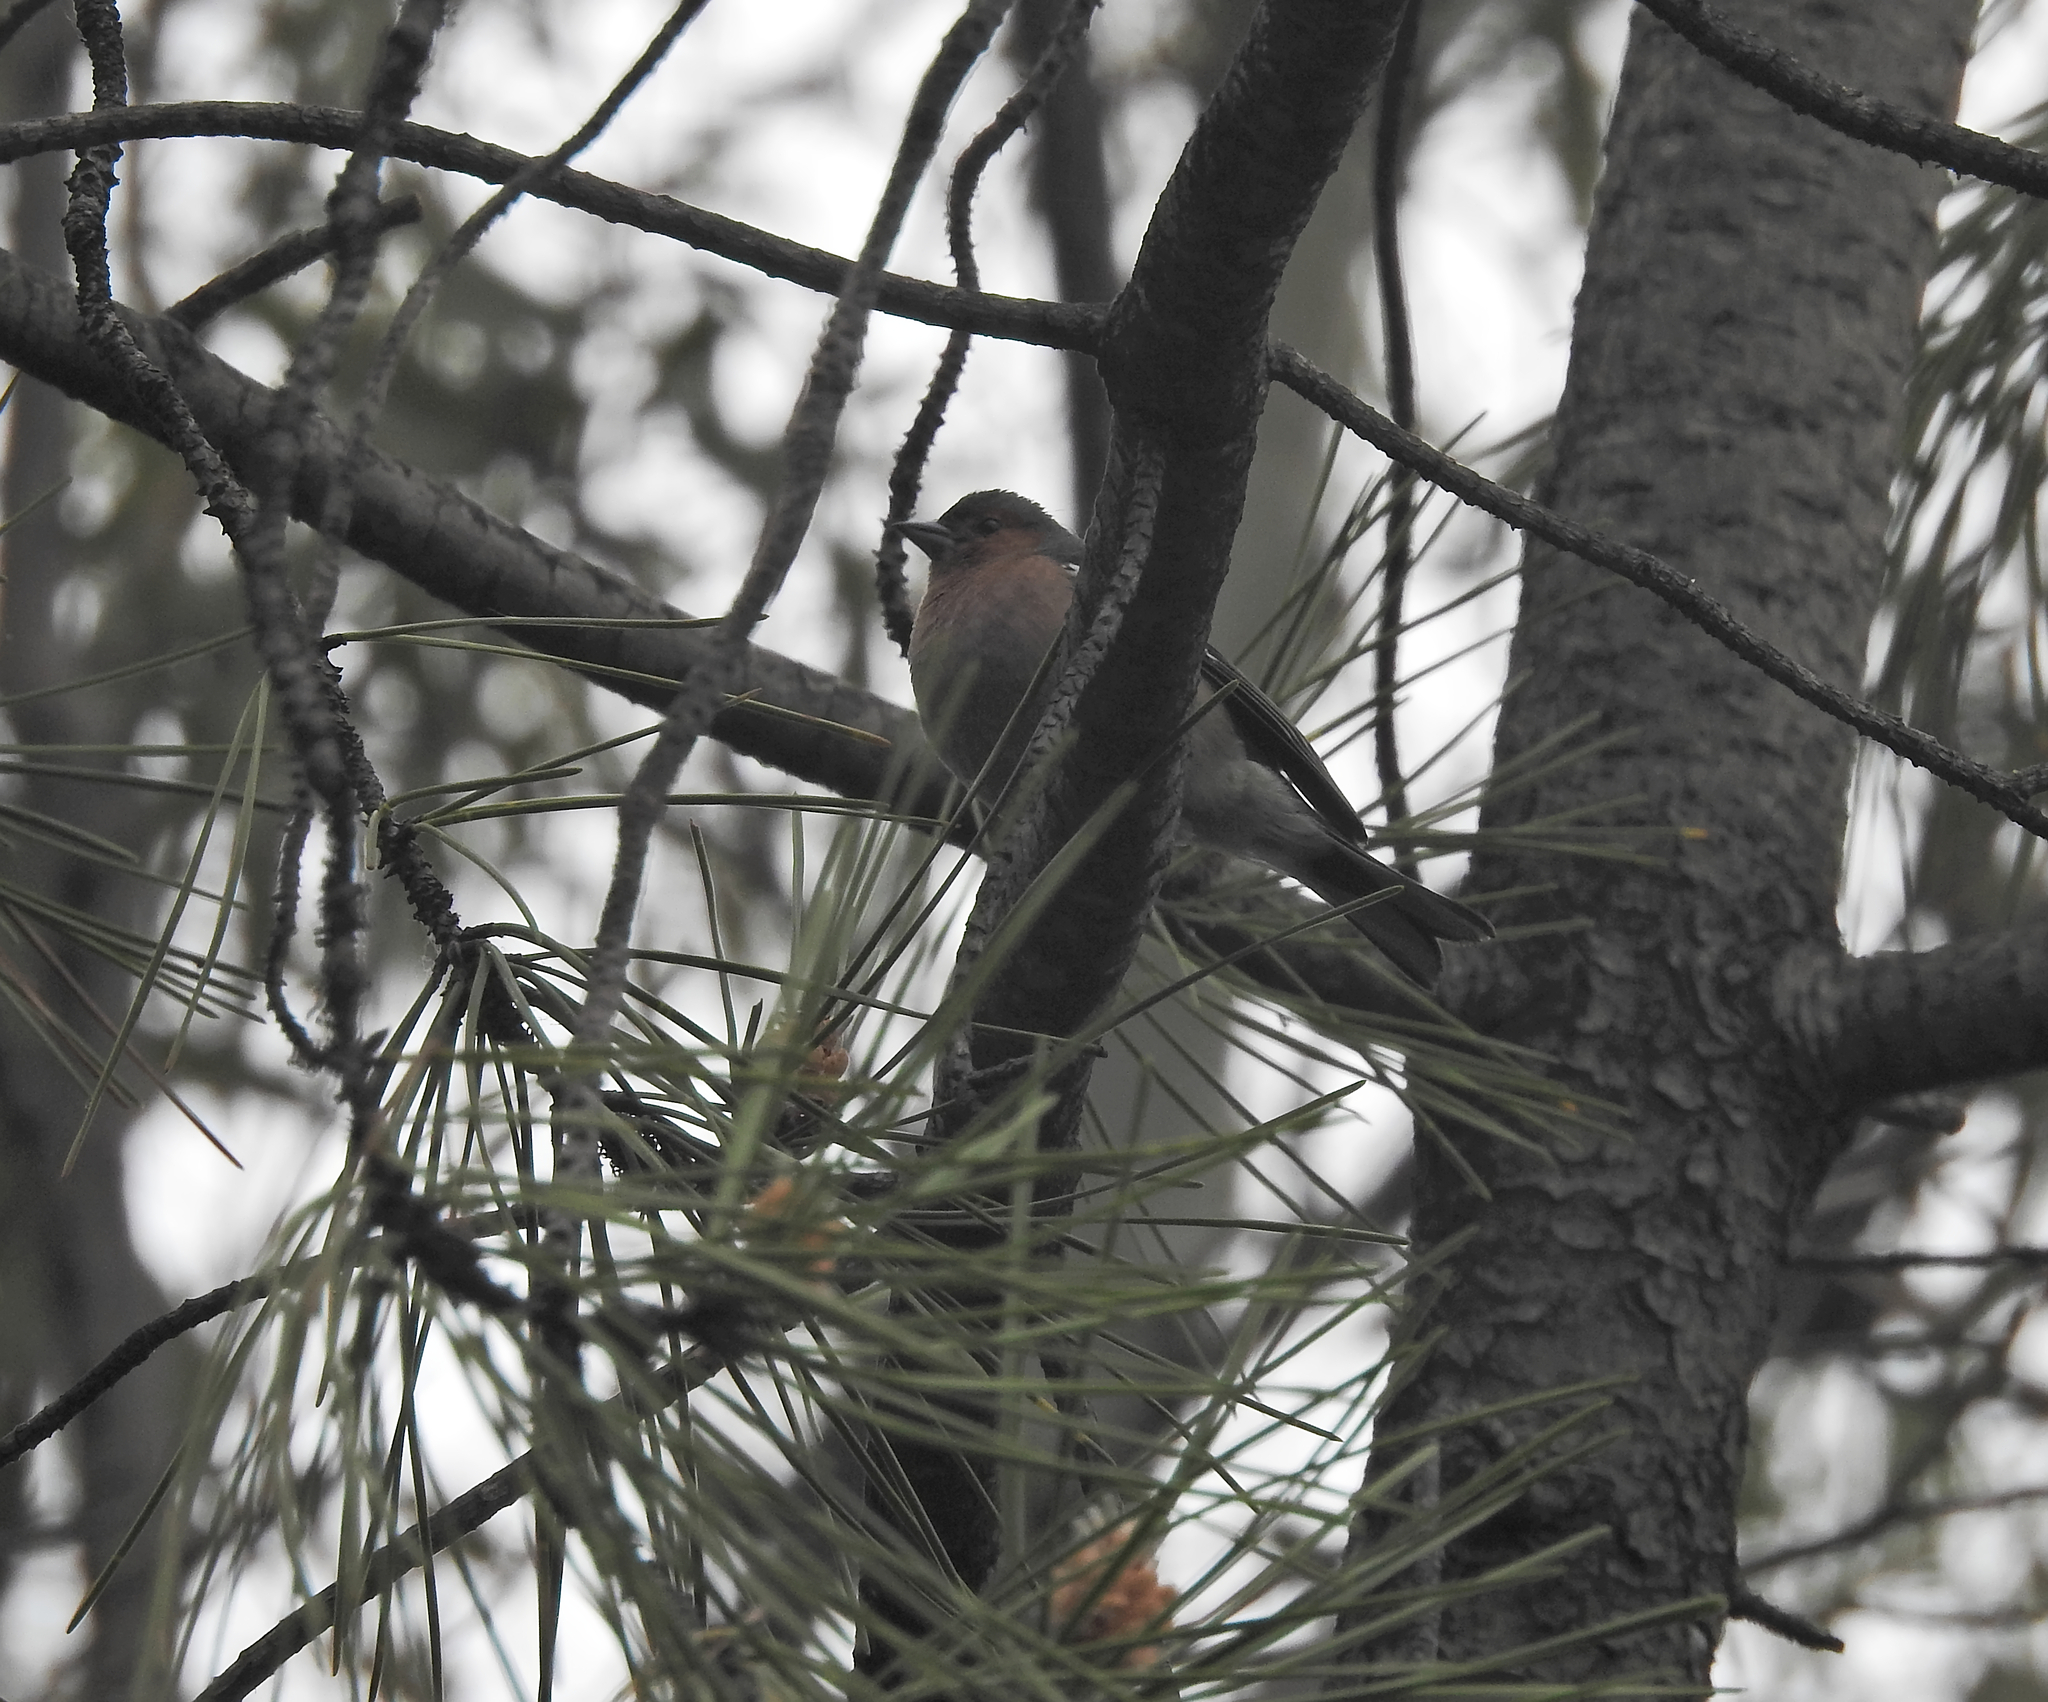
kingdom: Animalia
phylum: Chordata
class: Aves
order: Passeriformes
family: Fringillidae
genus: Fringilla
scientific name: Fringilla coelebs
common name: Common chaffinch
